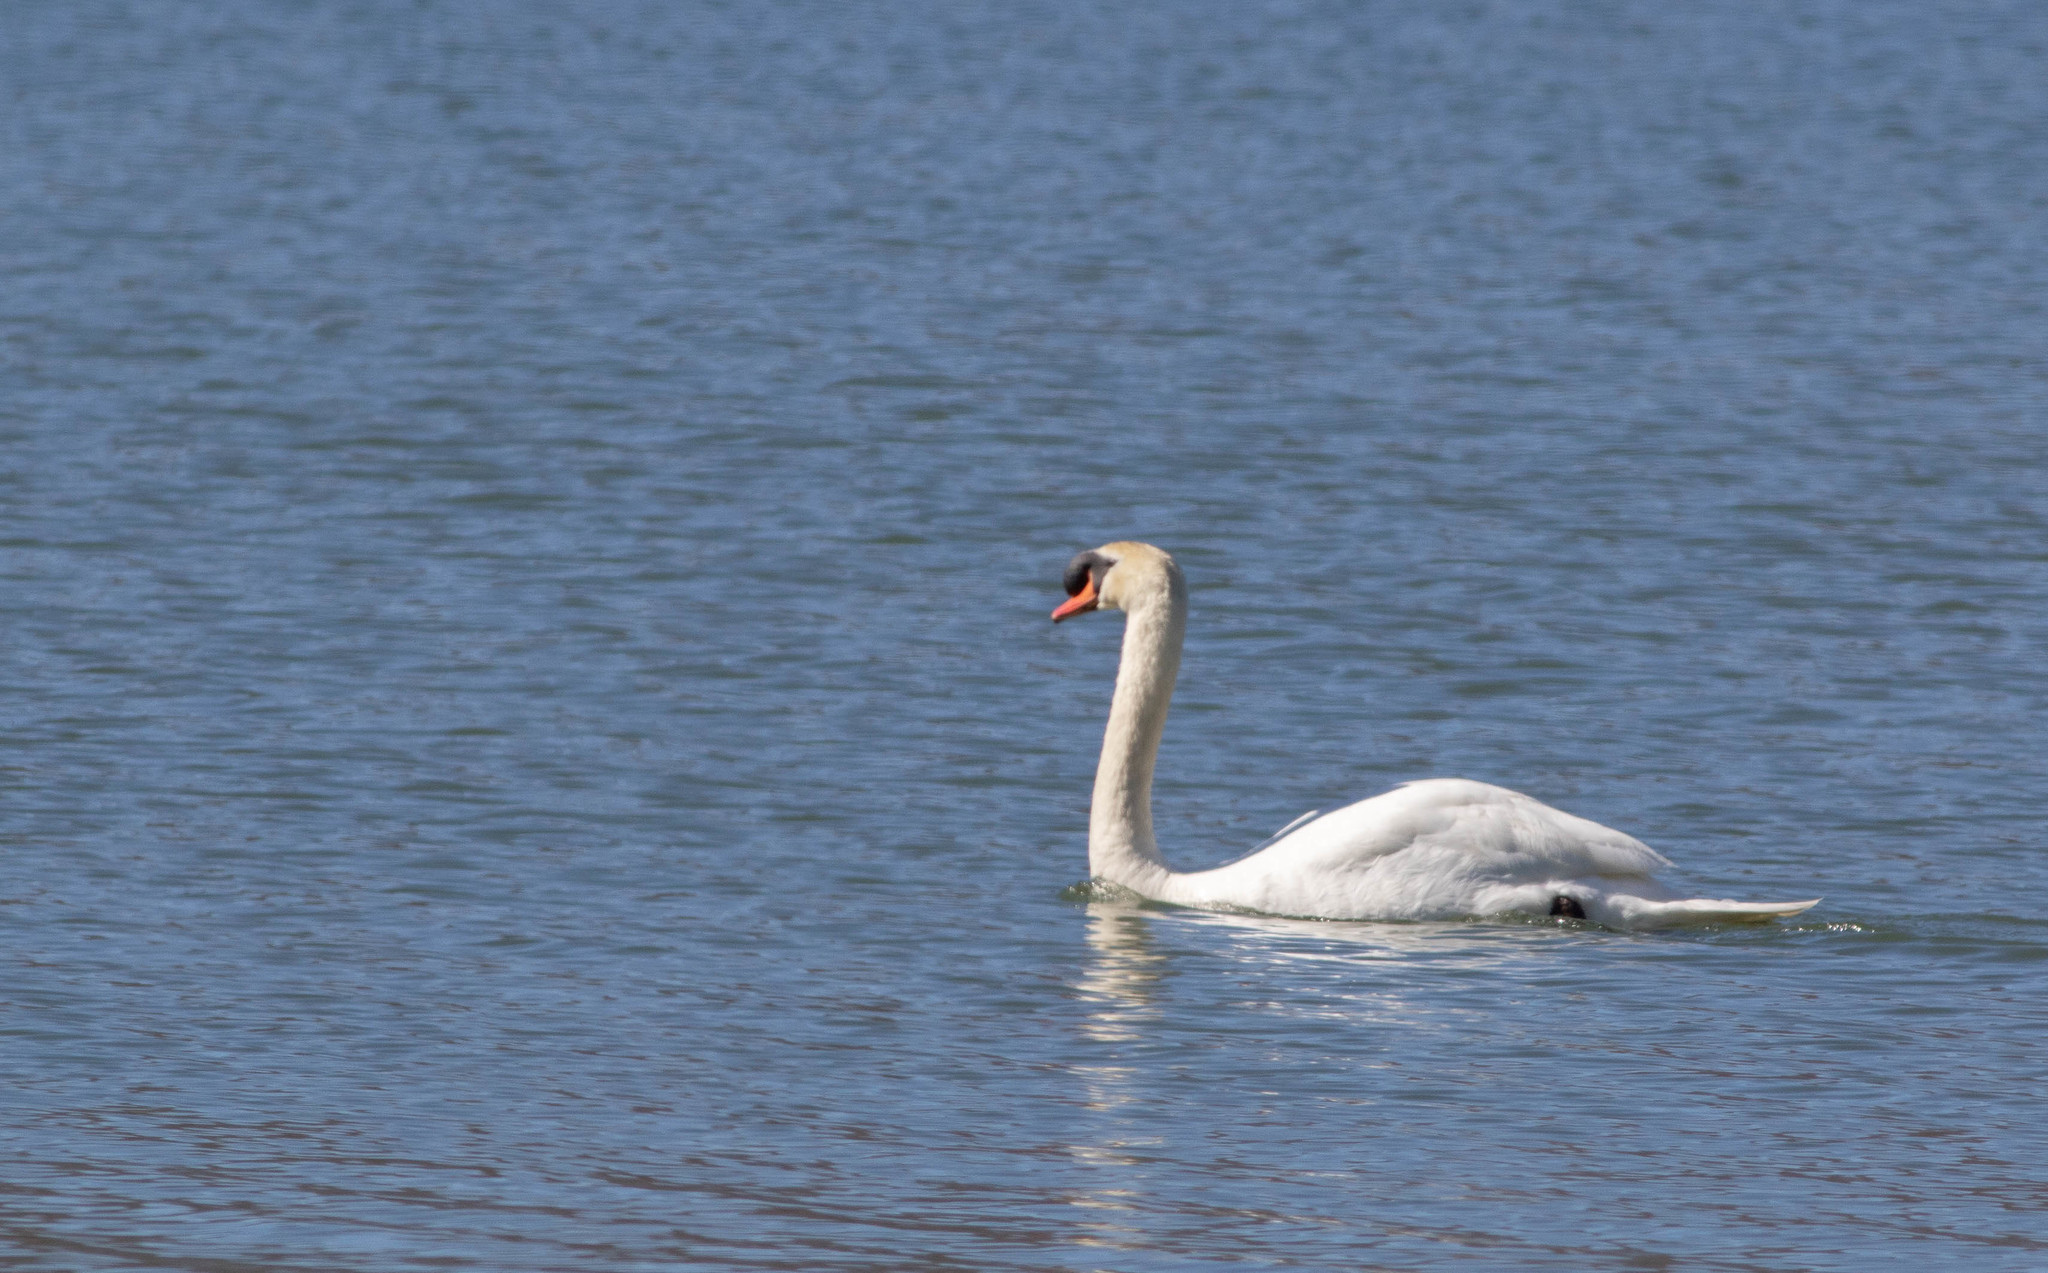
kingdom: Animalia
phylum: Chordata
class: Aves
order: Anseriformes
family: Anatidae
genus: Cygnus
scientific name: Cygnus olor
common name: Mute swan
